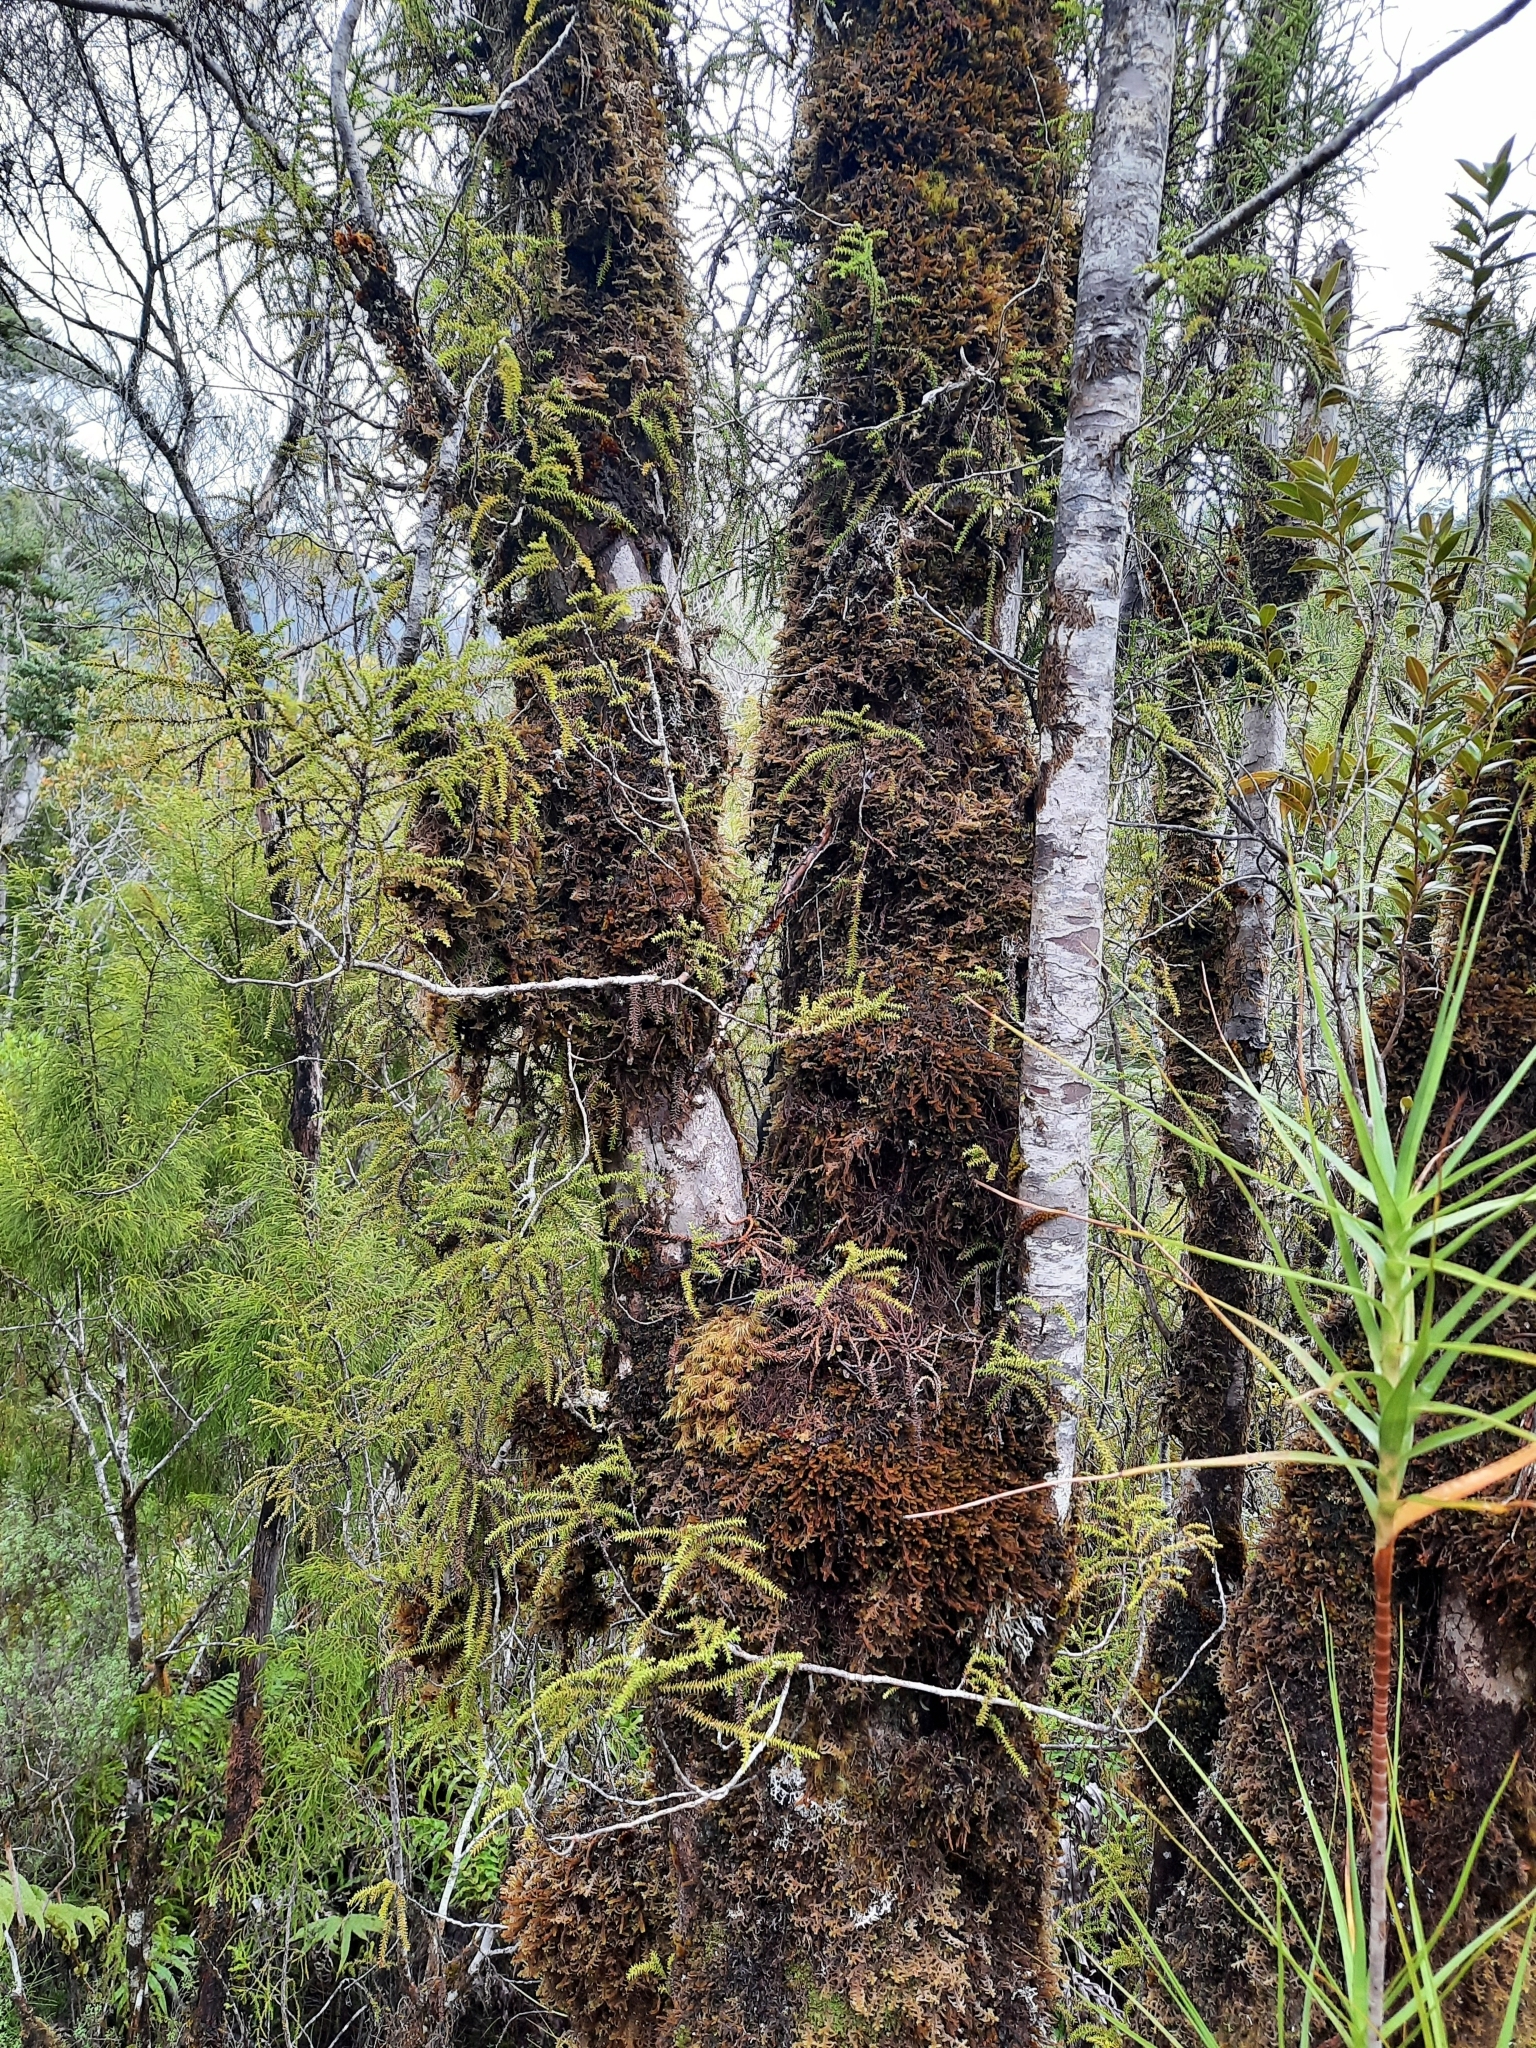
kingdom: Plantae
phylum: Tracheophyta
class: Pinopsida
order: Pinales
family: Podocarpaceae
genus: Lepidothamnus
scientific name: Lepidothamnus intermedius
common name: Yellow silver pine
